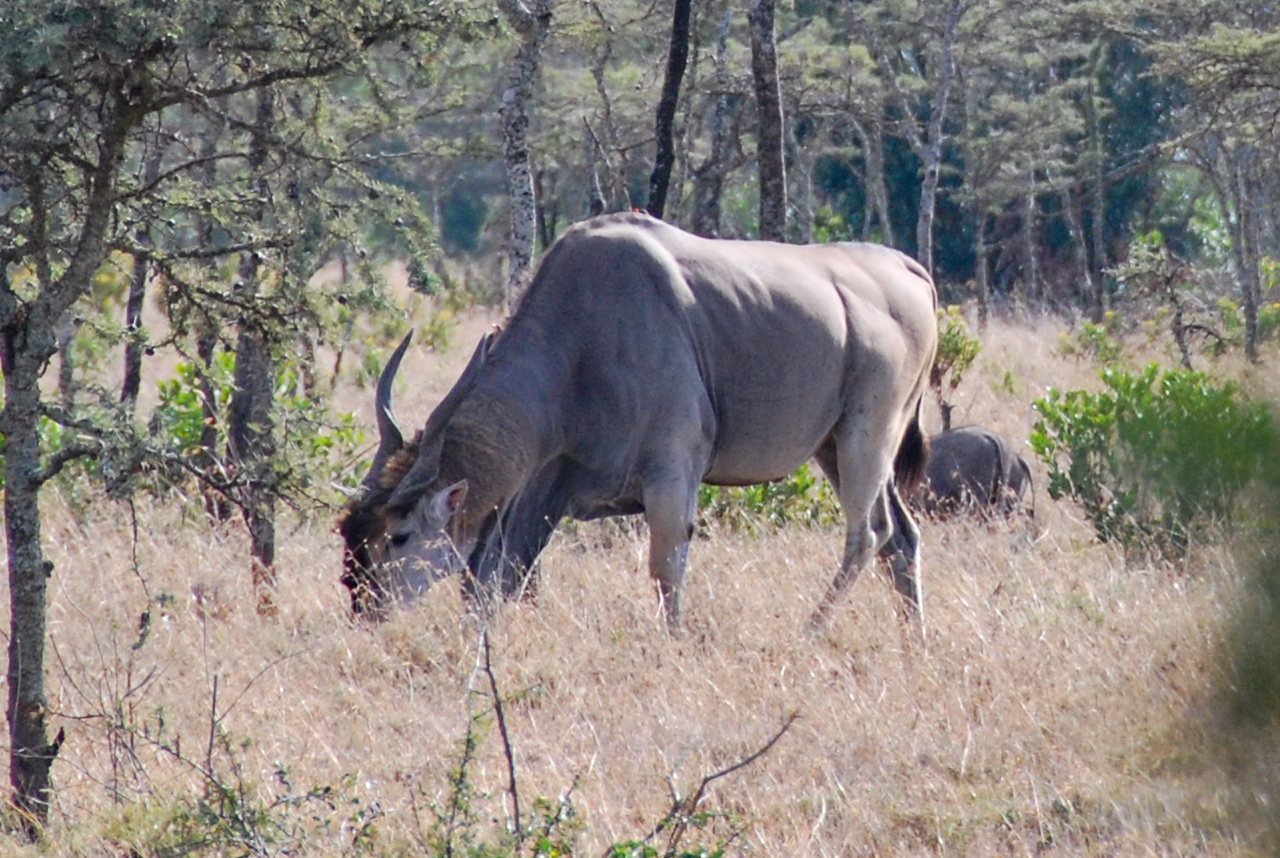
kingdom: Animalia
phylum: Chordata
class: Mammalia
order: Artiodactyla
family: Bovidae
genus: Taurotragus
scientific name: Taurotragus oryx
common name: Common eland
